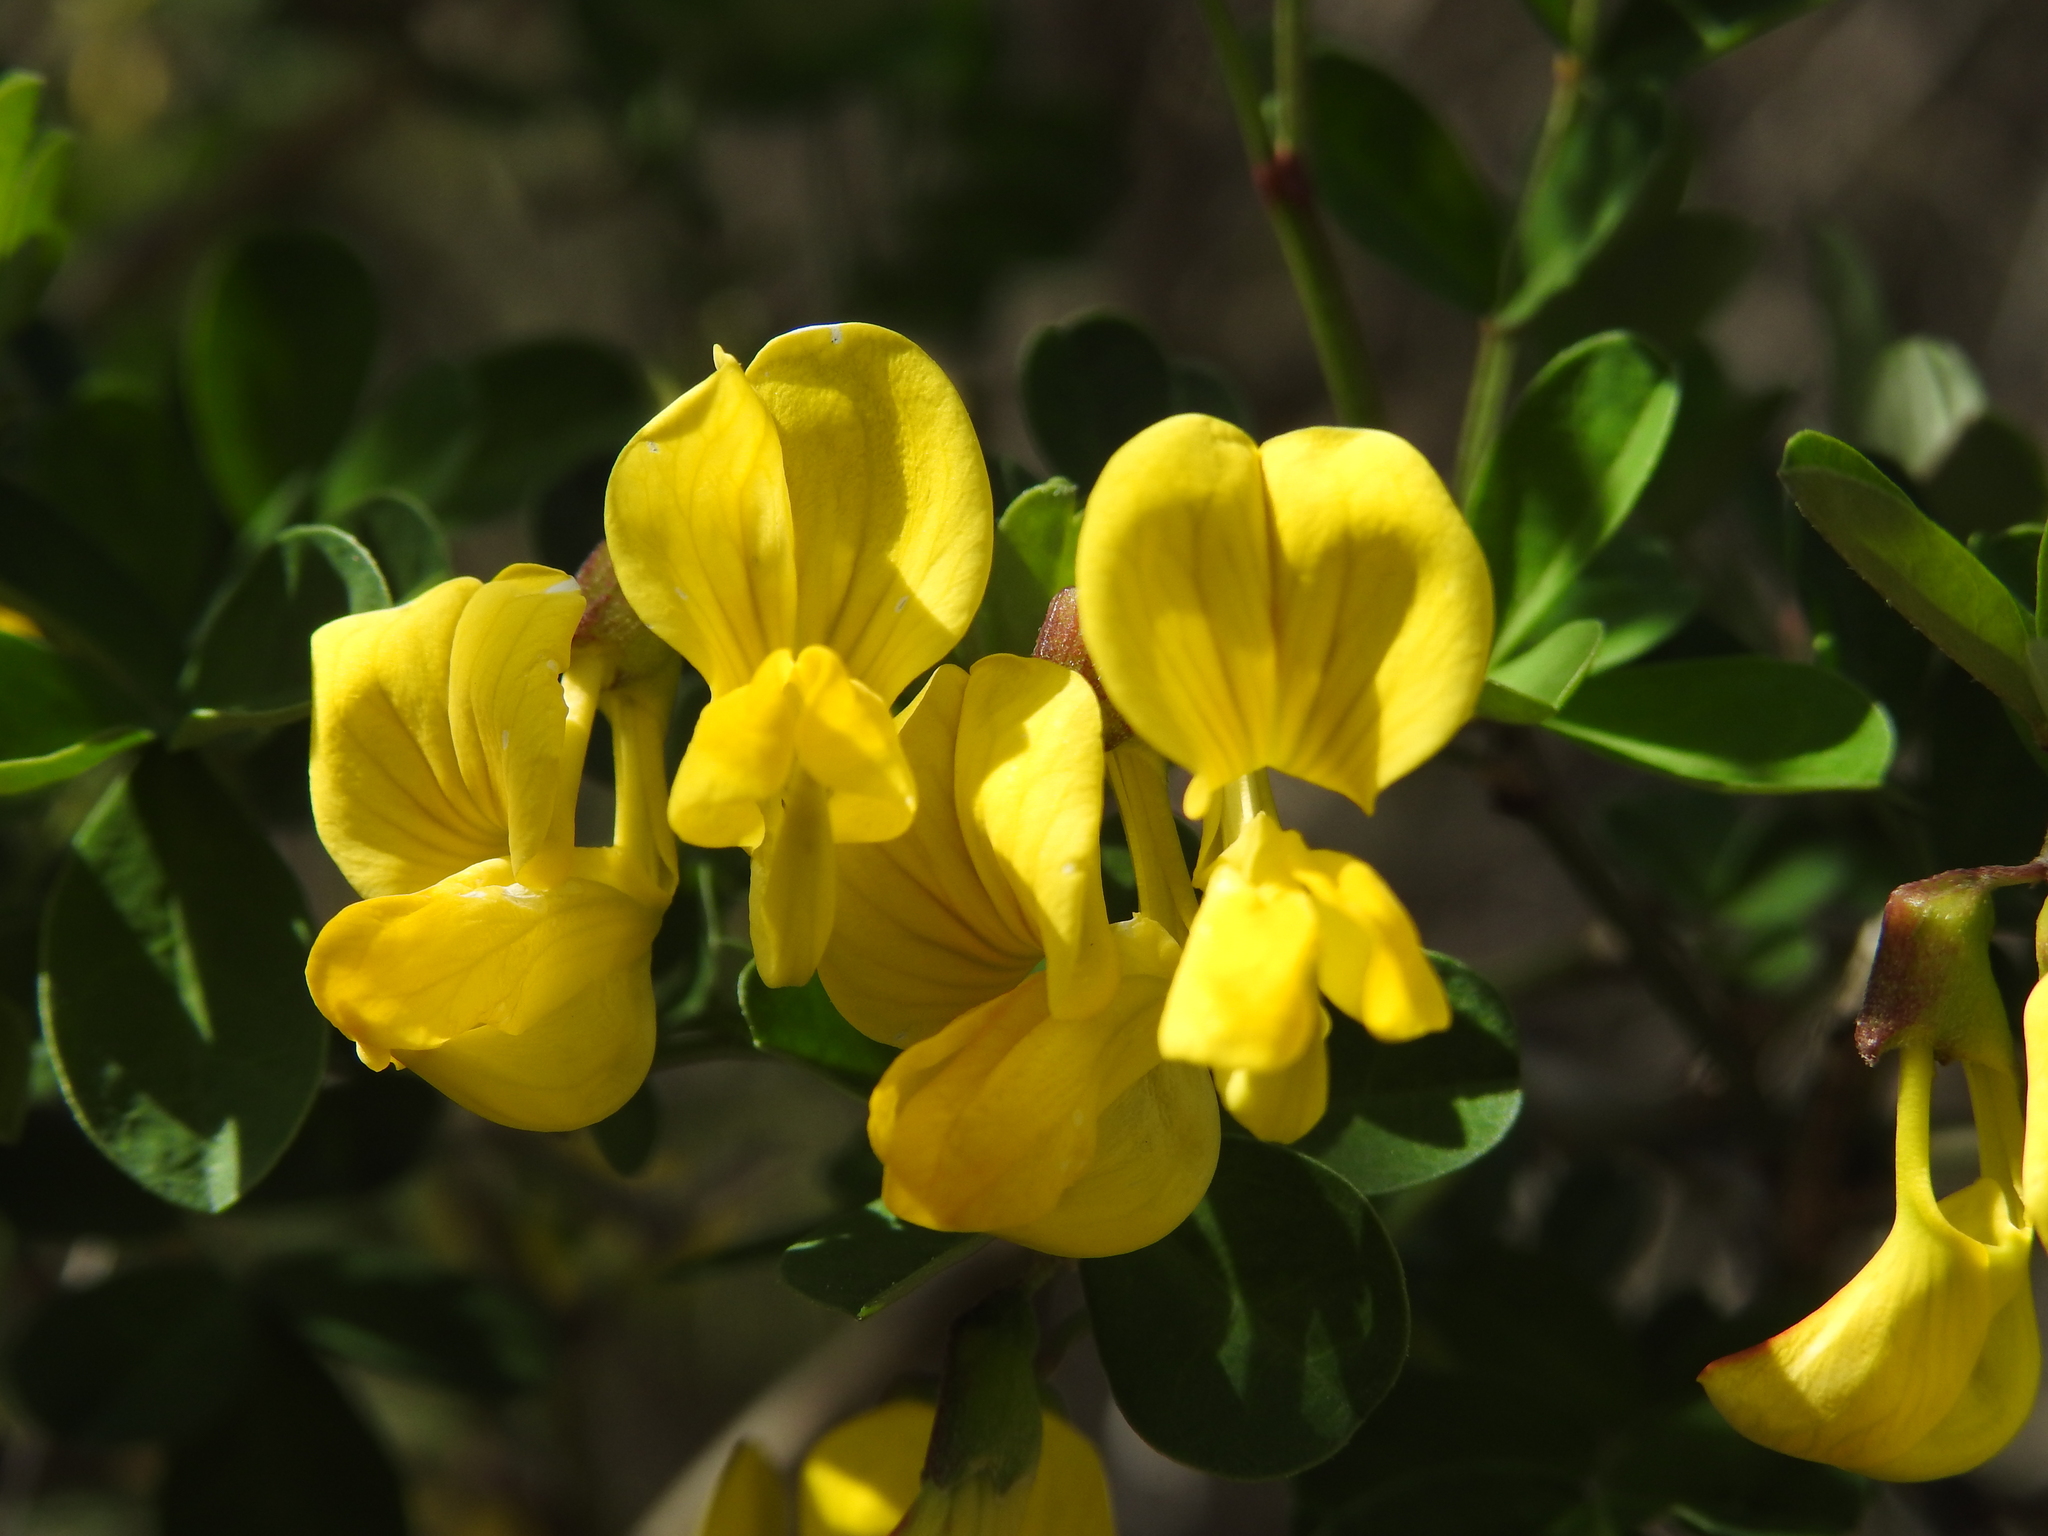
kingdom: Plantae
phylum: Tracheophyta
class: Magnoliopsida
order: Fabales
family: Fabaceae
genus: Hippocrepis
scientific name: Hippocrepis emerus
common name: Scorpion senna
